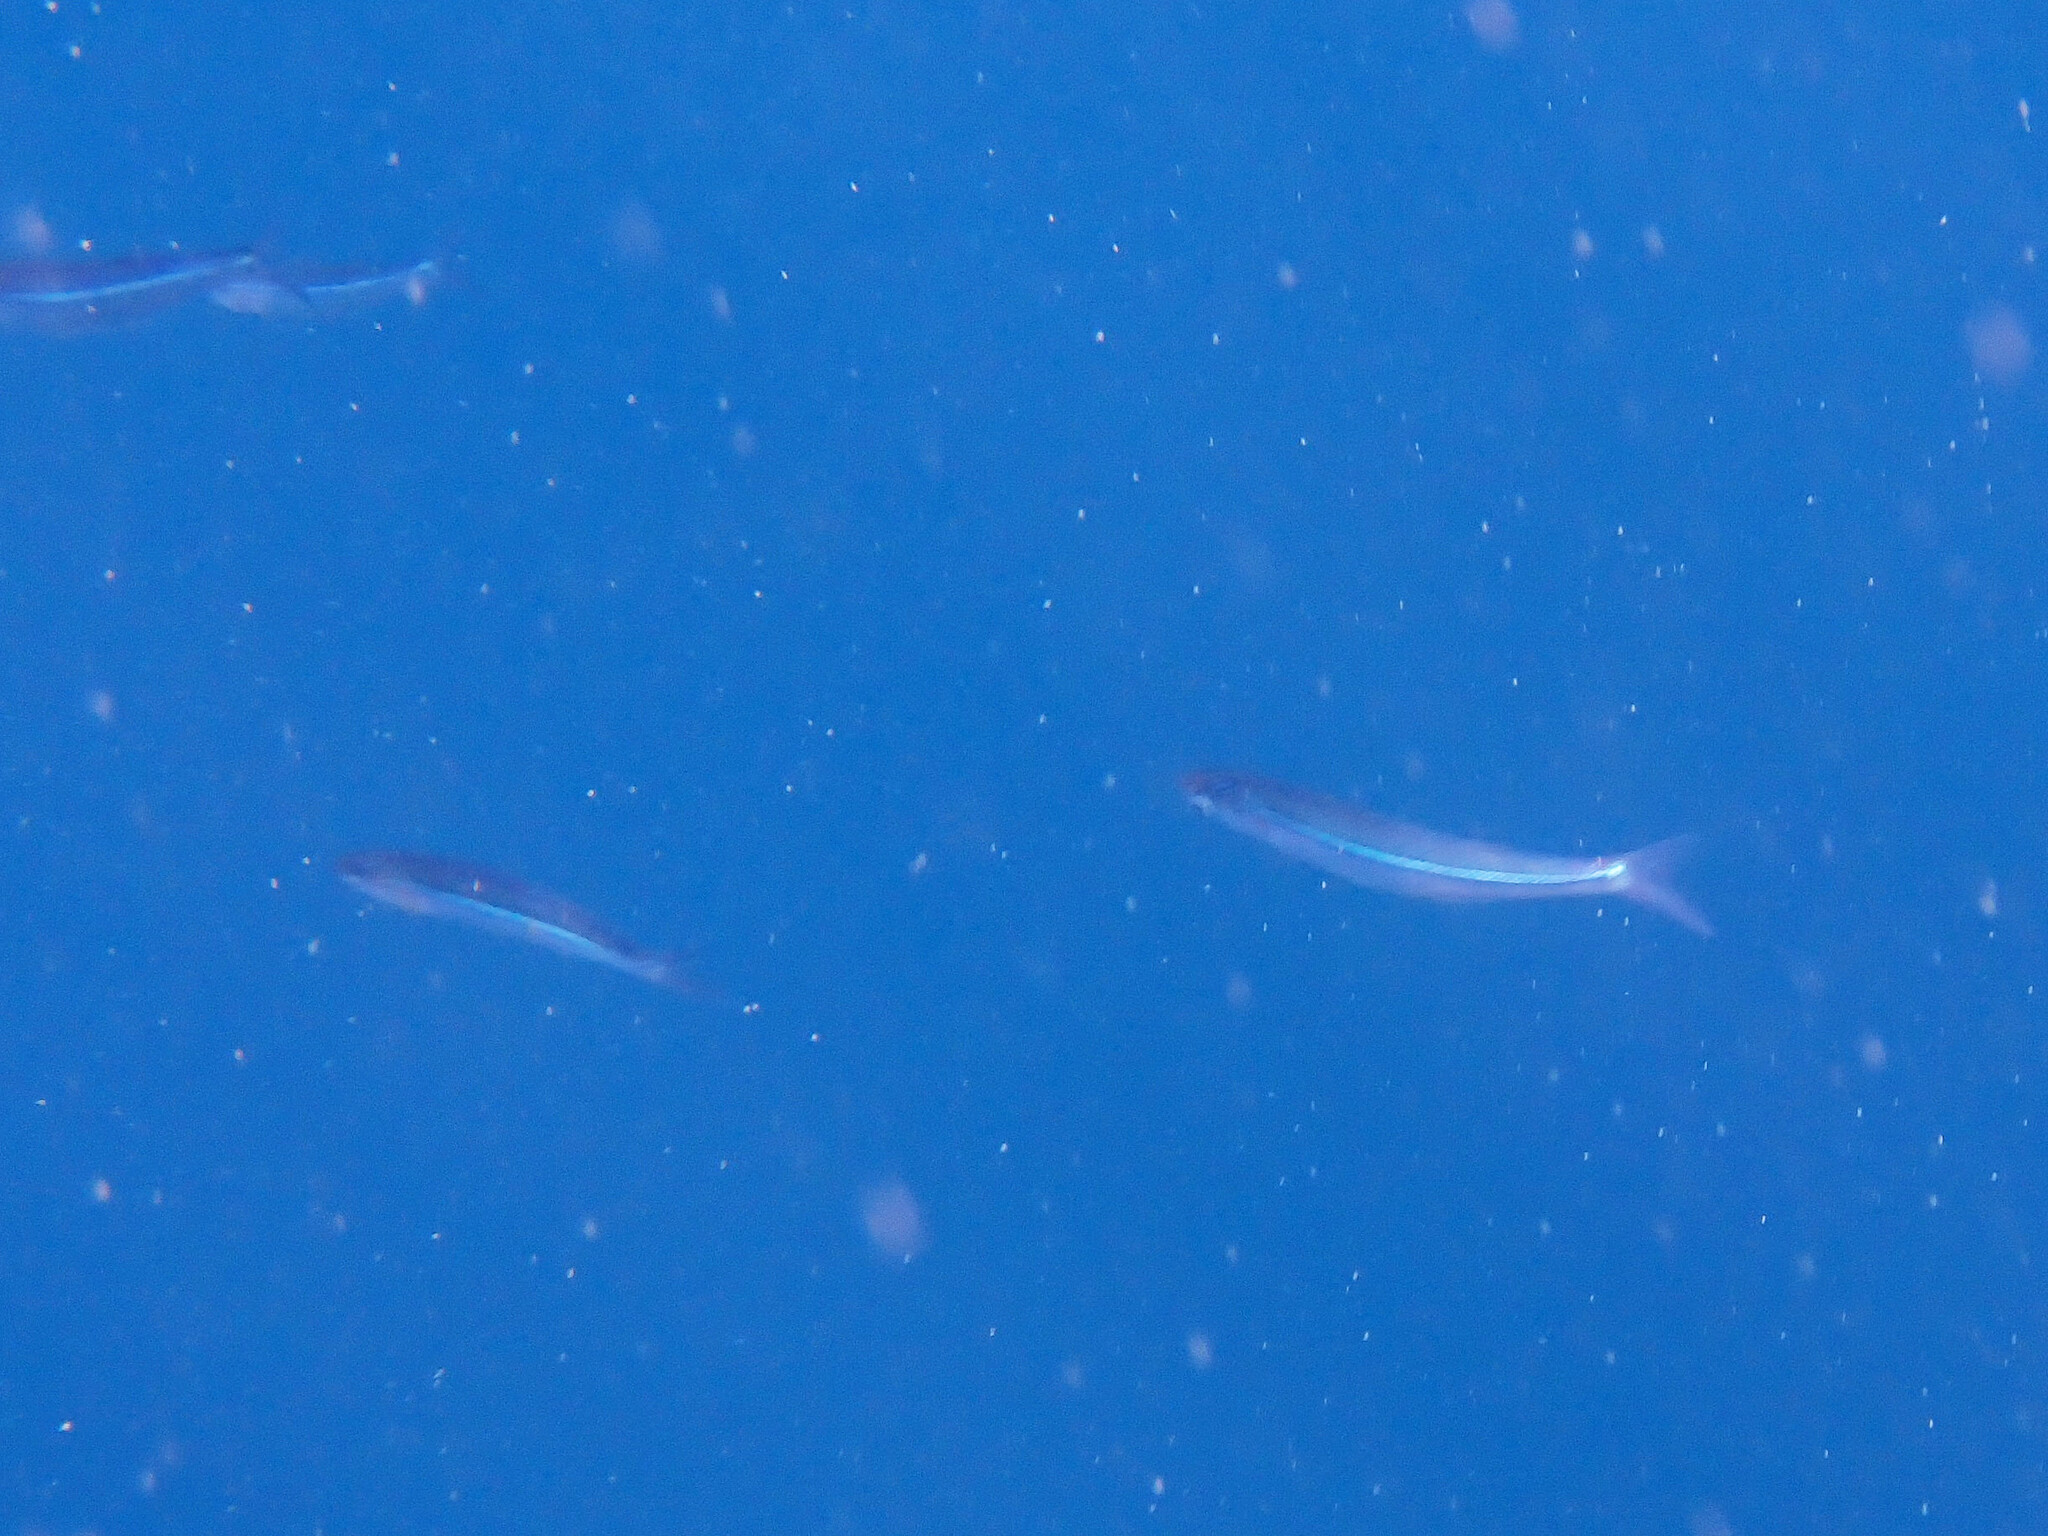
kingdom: Animalia
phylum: Chordata
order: Atheriniformes
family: Atherinopsidae
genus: Atherinops
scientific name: Atherinops affinis
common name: Topsmelt
